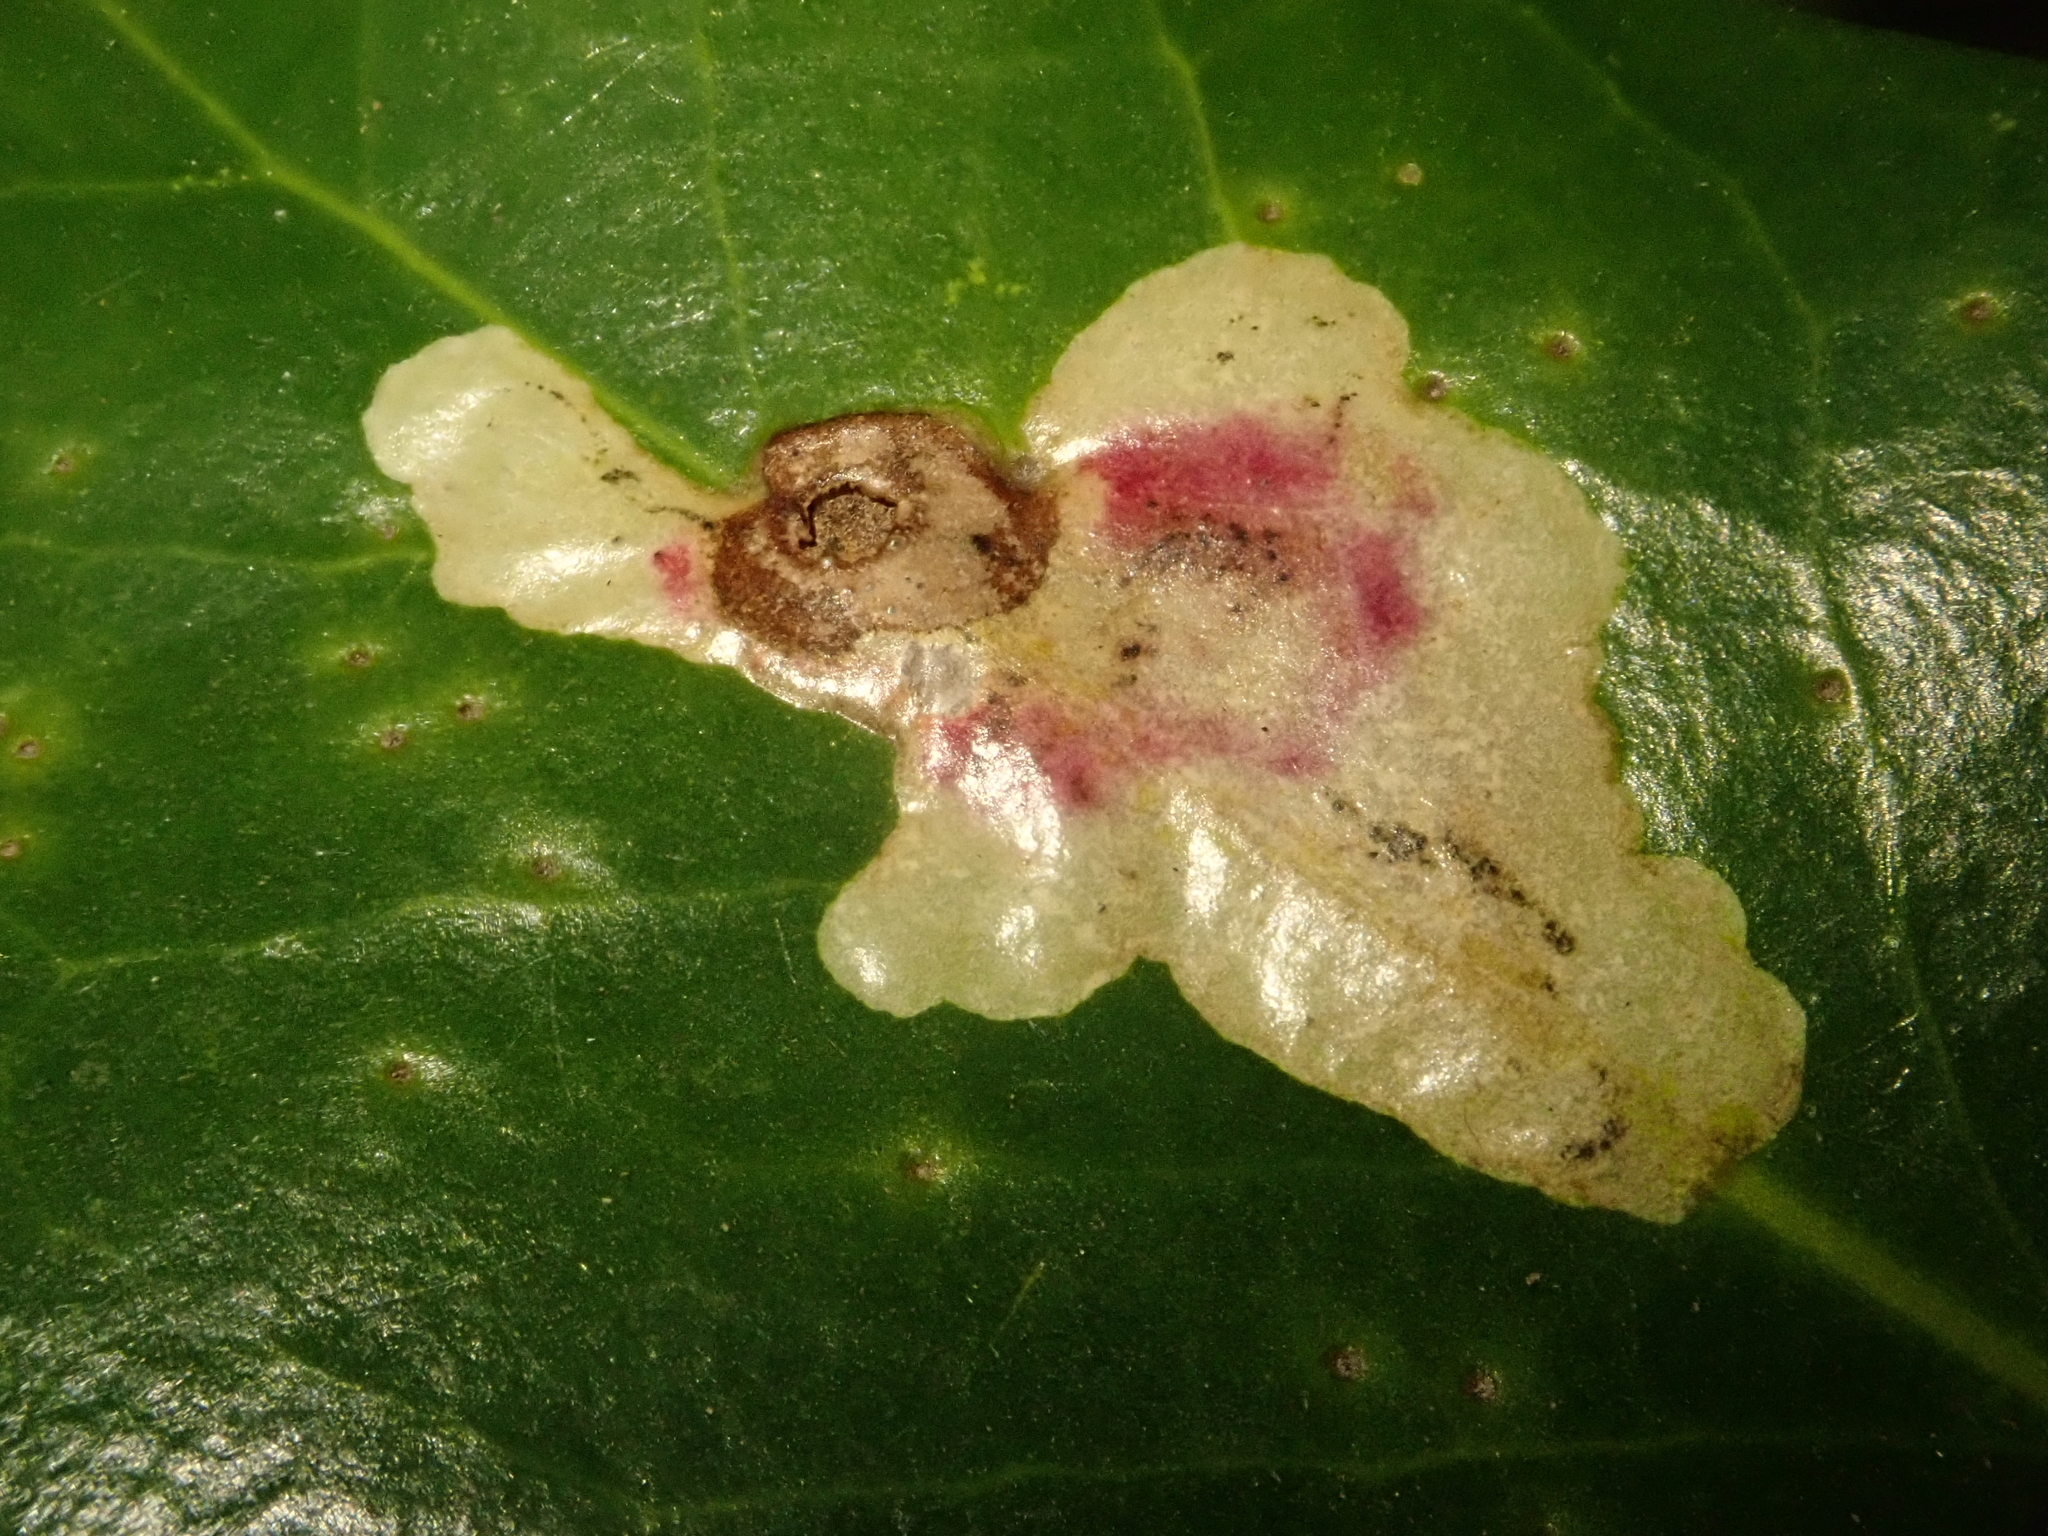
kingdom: Animalia
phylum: Arthropoda
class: Insecta
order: Diptera
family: Agromyzidae
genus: Phytomyza
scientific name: Phytomyza ilicis
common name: Holly leafminer
